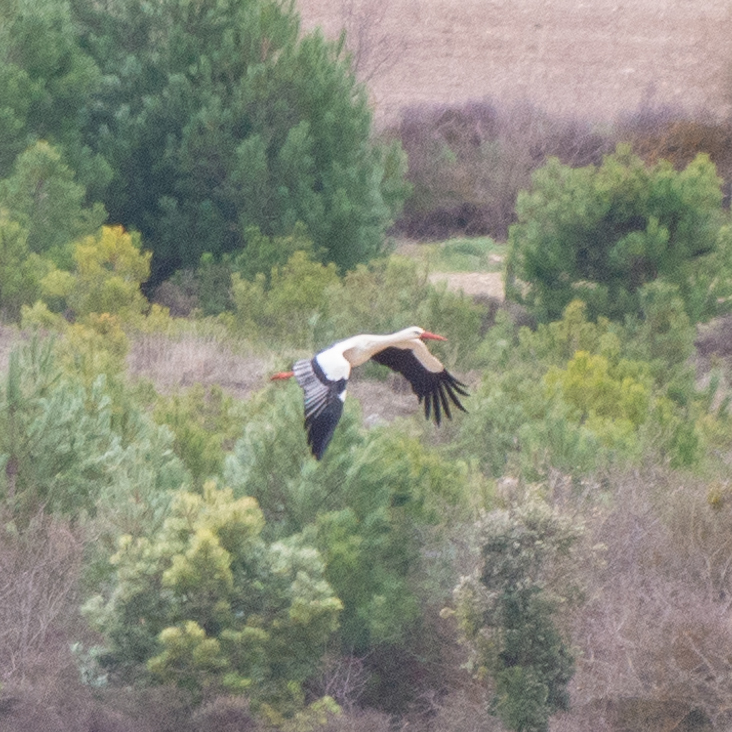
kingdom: Animalia
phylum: Chordata
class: Aves
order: Ciconiiformes
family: Ciconiidae
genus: Ciconia
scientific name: Ciconia ciconia
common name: White stork
